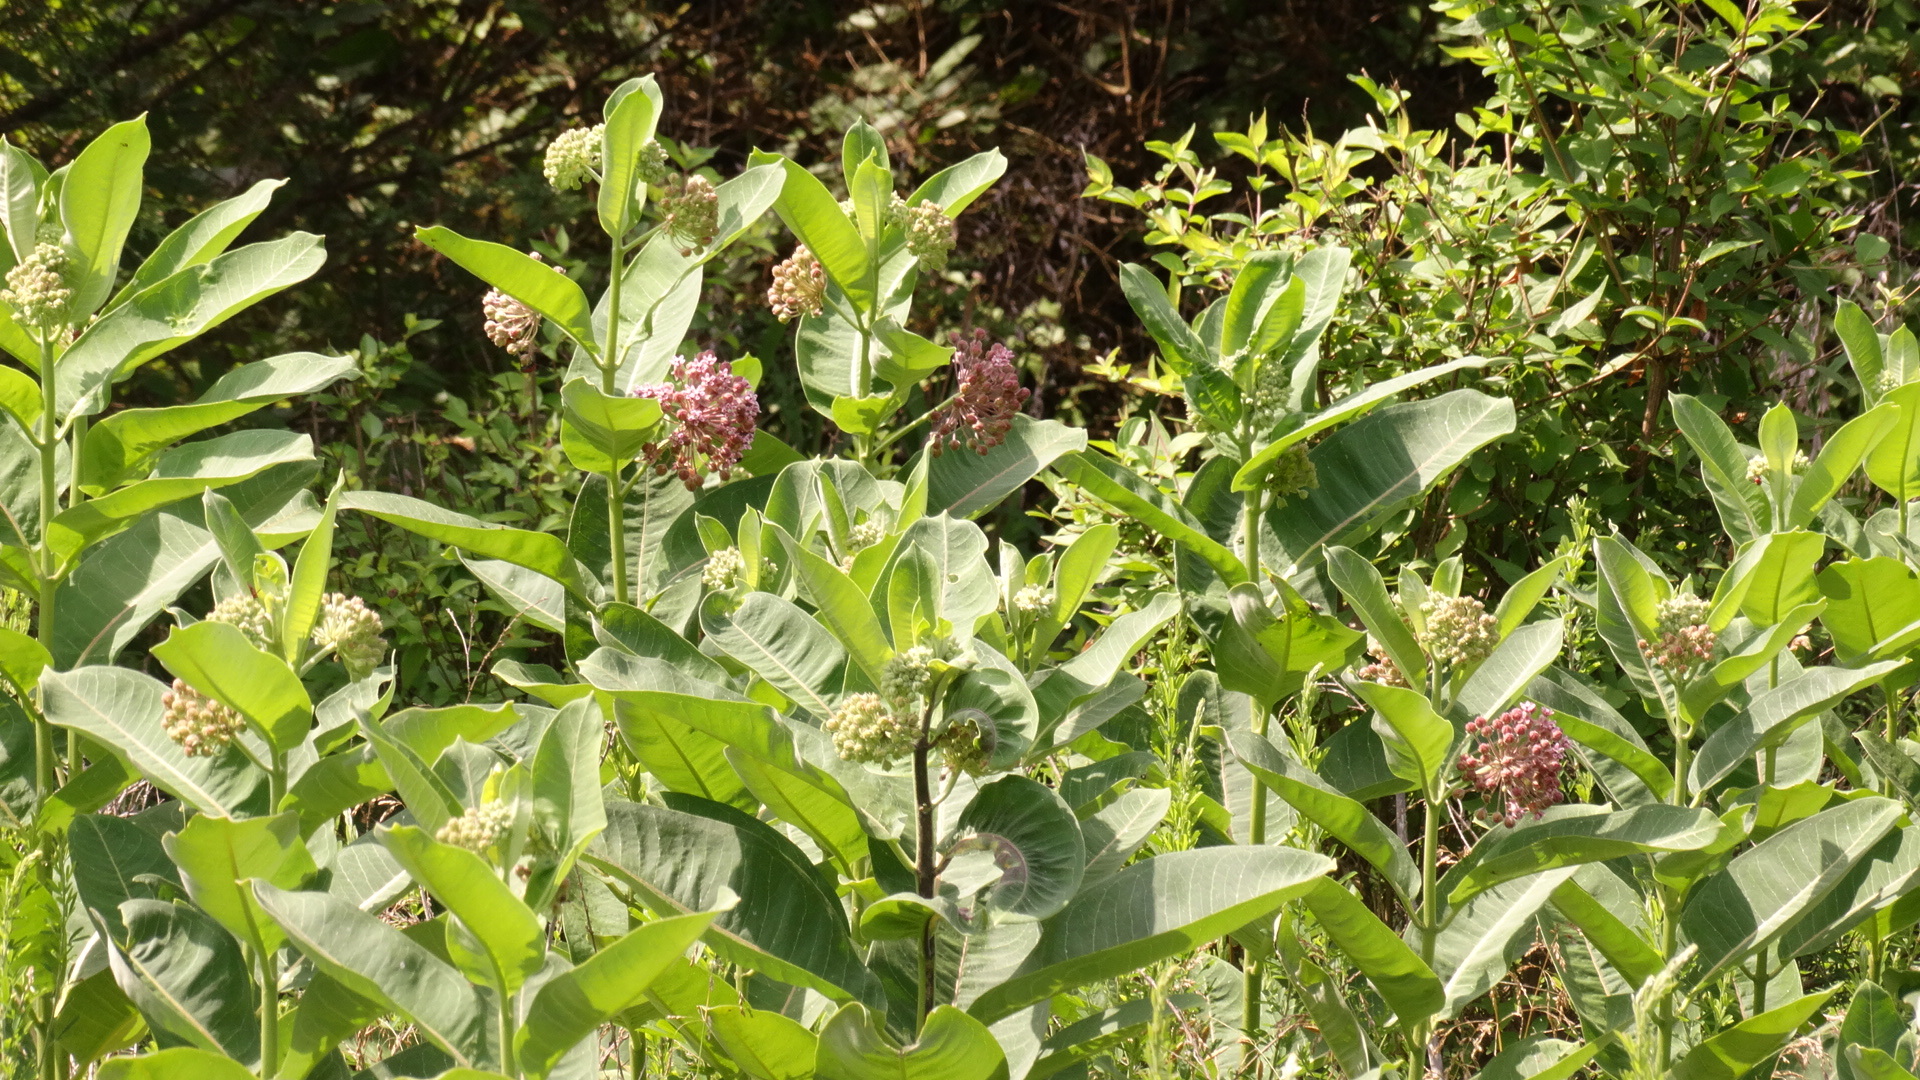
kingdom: Plantae
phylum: Tracheophyta
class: Magnoliopsida
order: Gentianales
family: Apocynaceae
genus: Asclepias
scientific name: Asclepias syriaca
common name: Common milkweed
